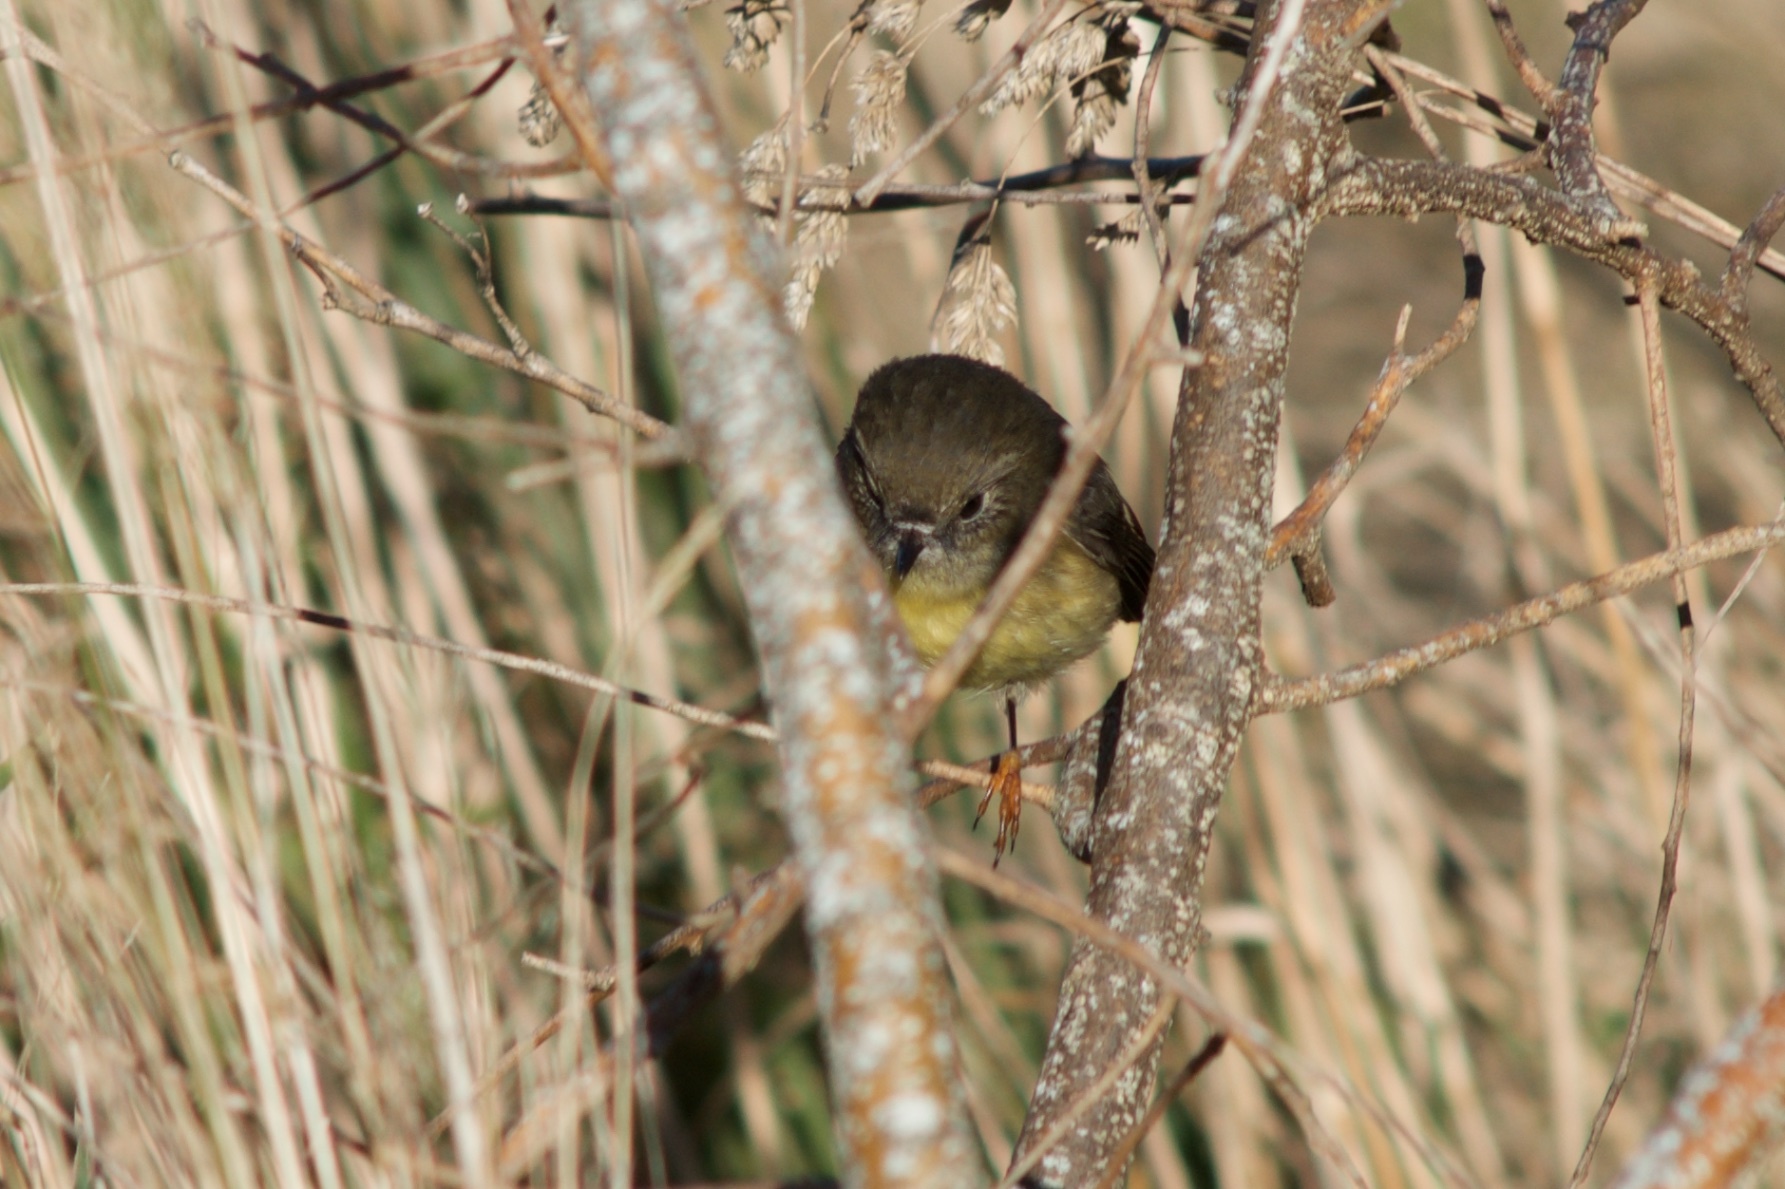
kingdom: Animalia
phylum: Chordata
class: Aves
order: Passeriformes
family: Petroicidae
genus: Petroica
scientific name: Petroica macrocephala
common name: Tomtit
